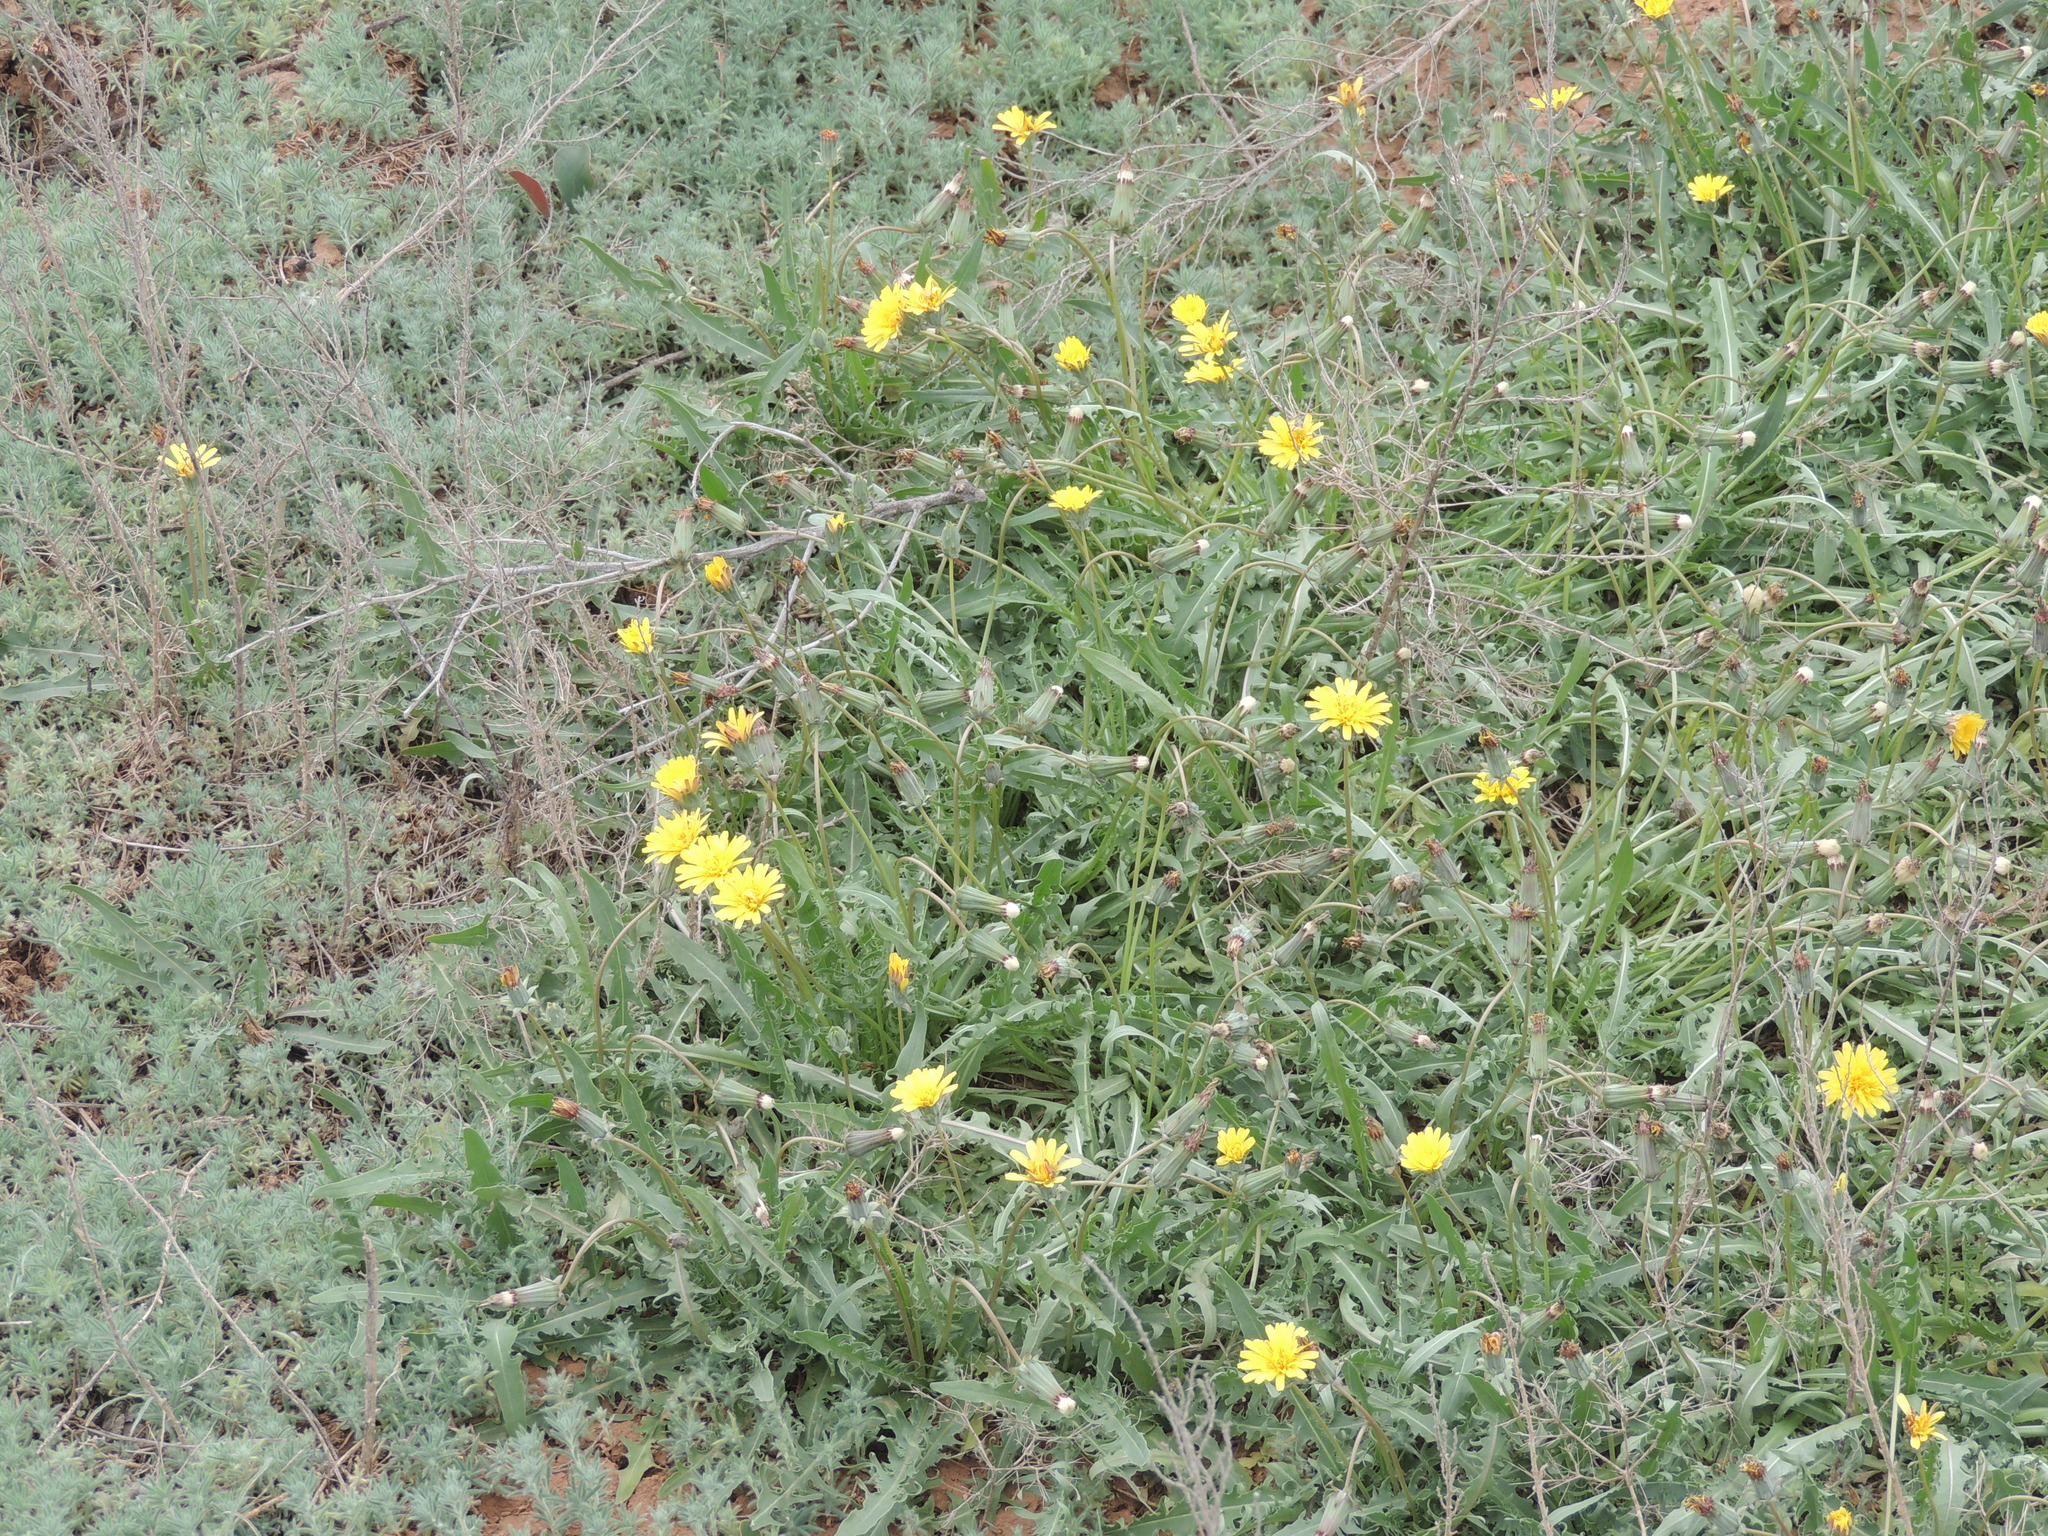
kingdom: Plantae
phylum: Tracheophyta
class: Magnoliopsida
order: Asterales
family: Asteraceae
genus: Taraxacum
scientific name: Taraxacum glaucanthum
